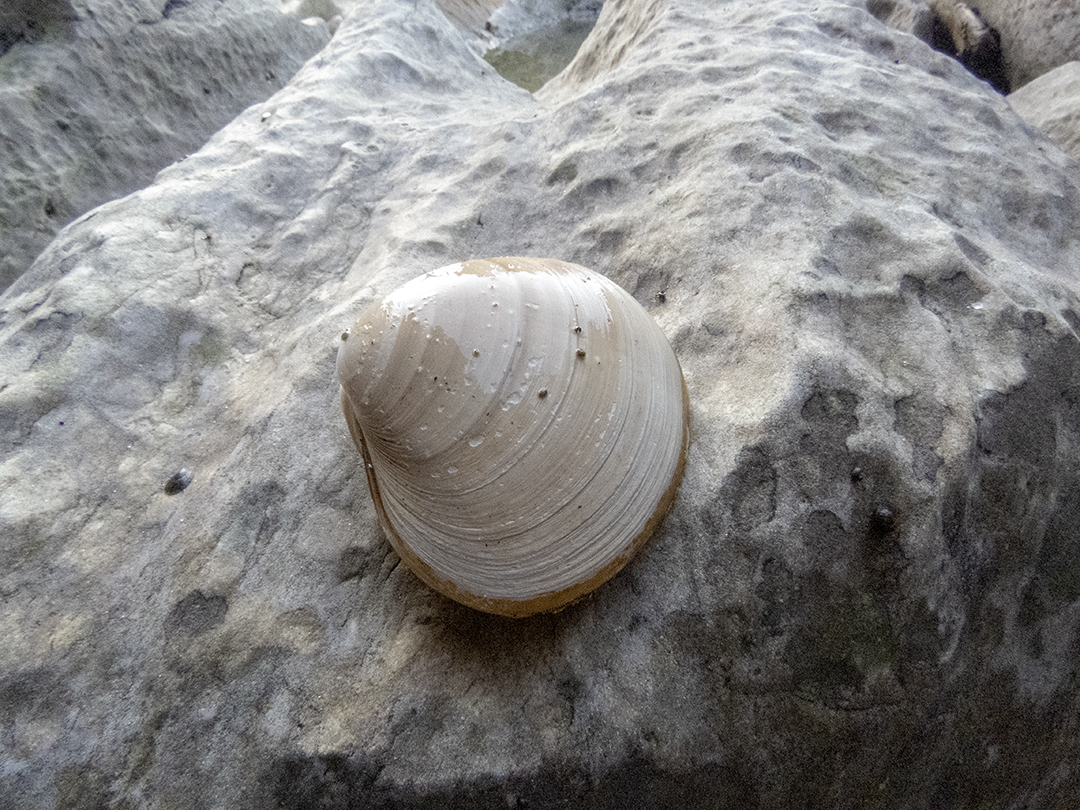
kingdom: Animalia
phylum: Mollusca
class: Bivalvia
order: Venerida
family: Mactridae
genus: Spisula
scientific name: Spisula murchisoni
